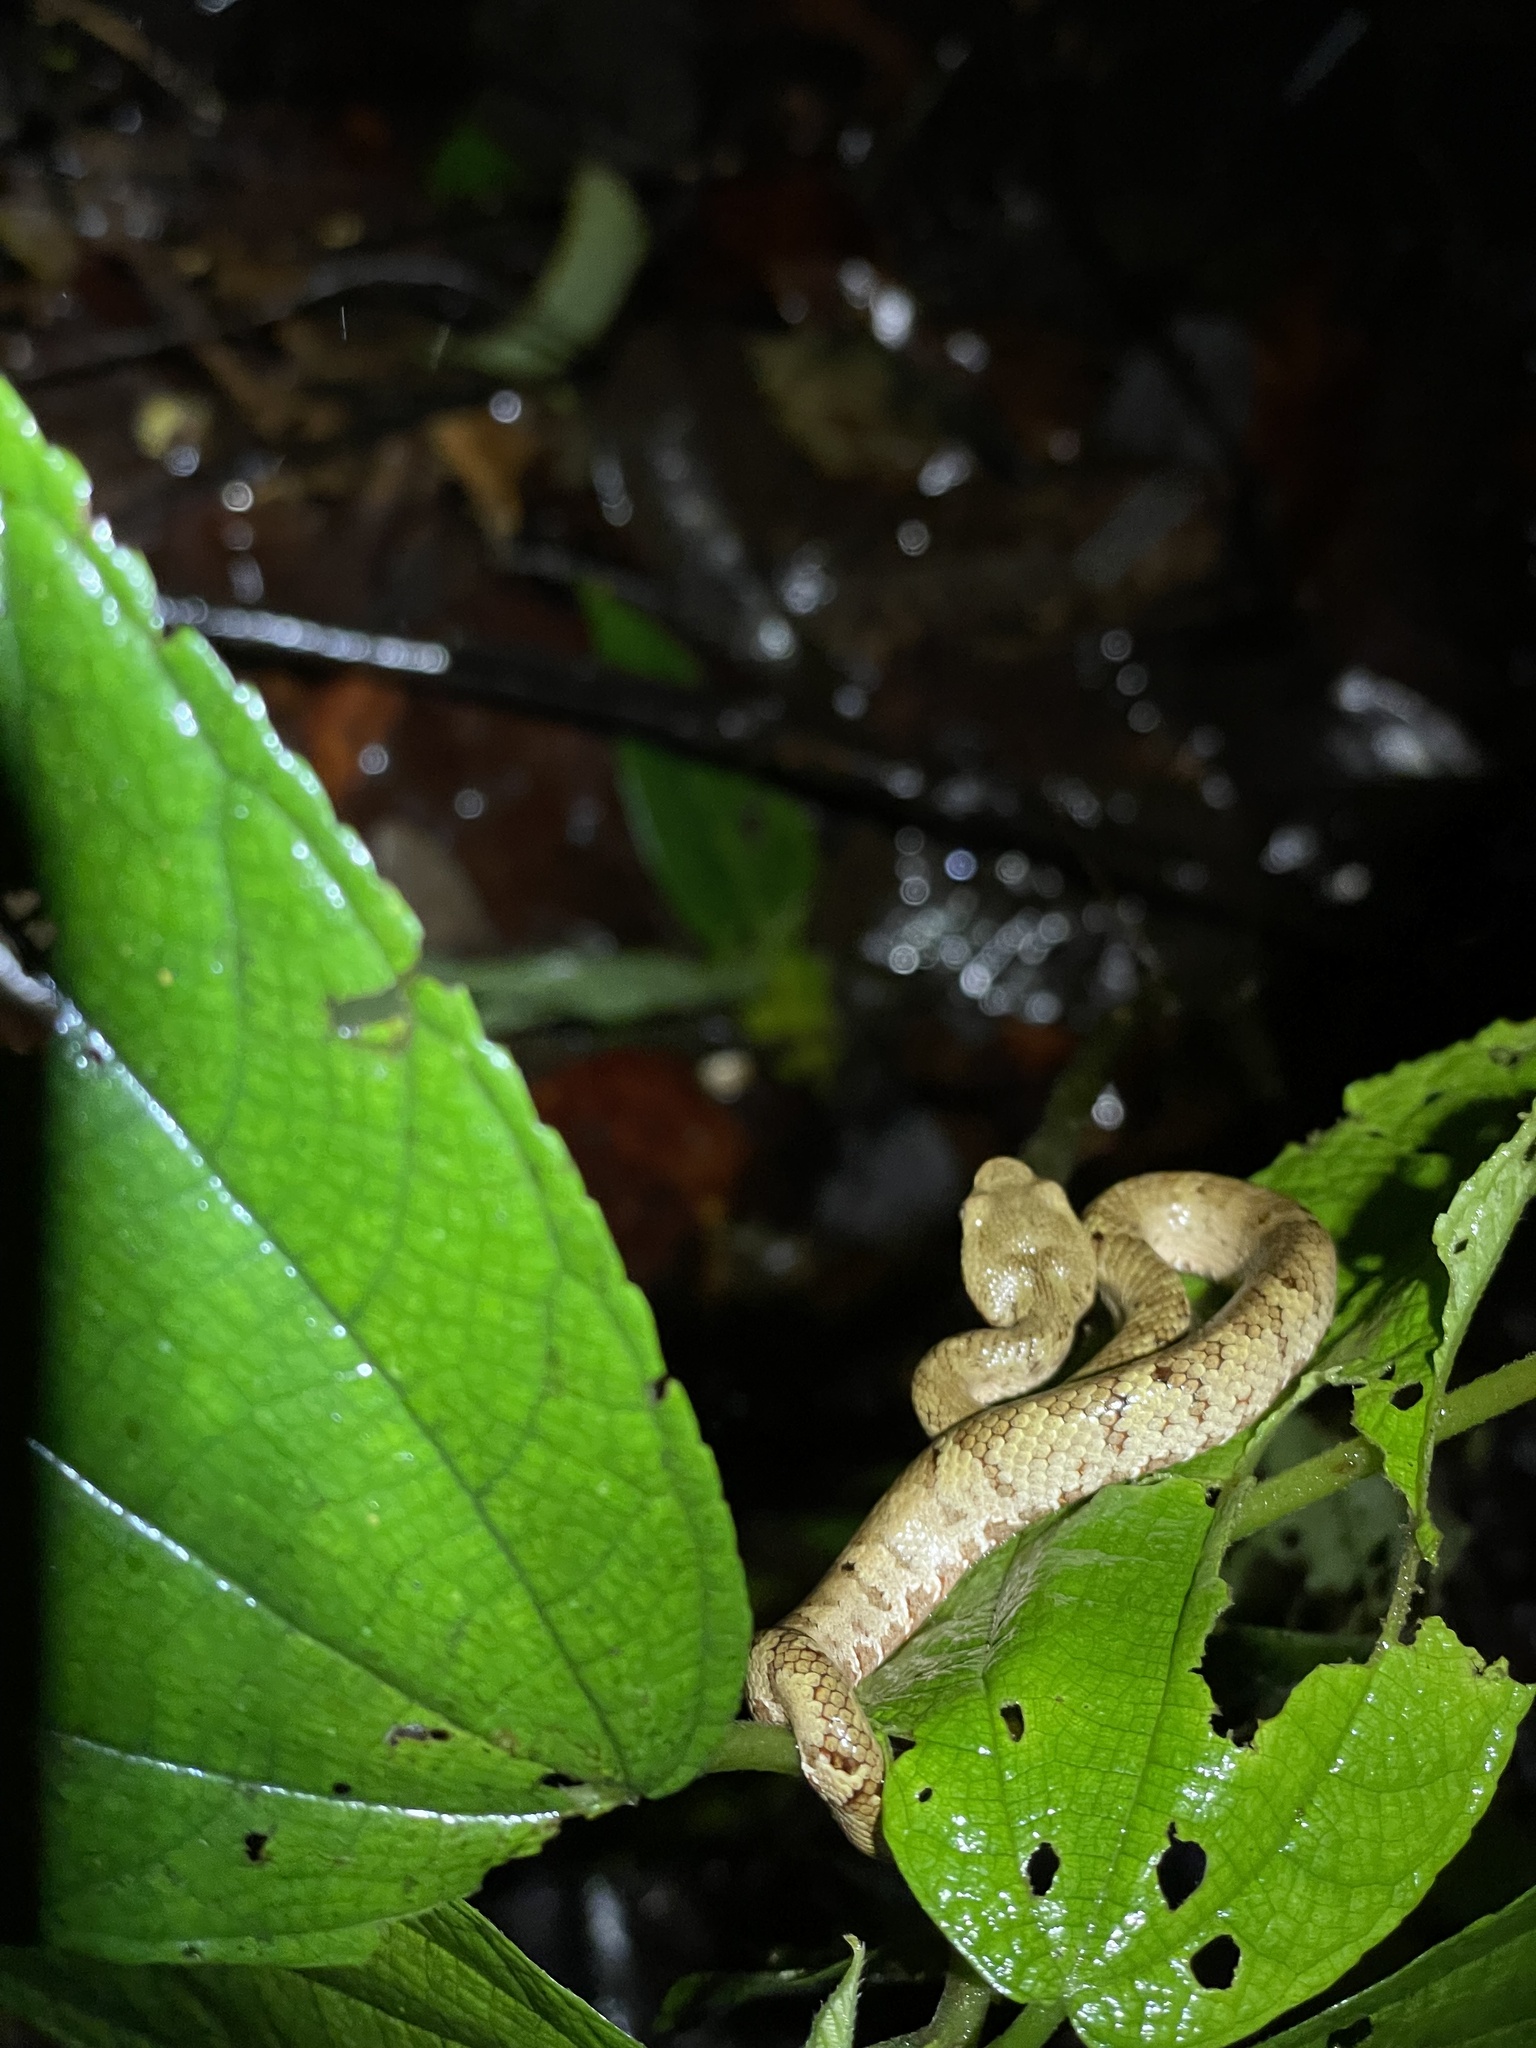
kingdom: Animalia
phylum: Chordata
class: Squamata
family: Viperidae
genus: Craspedocephalus
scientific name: Craspedocephalus malabaricus
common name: Malabarian pit viper
